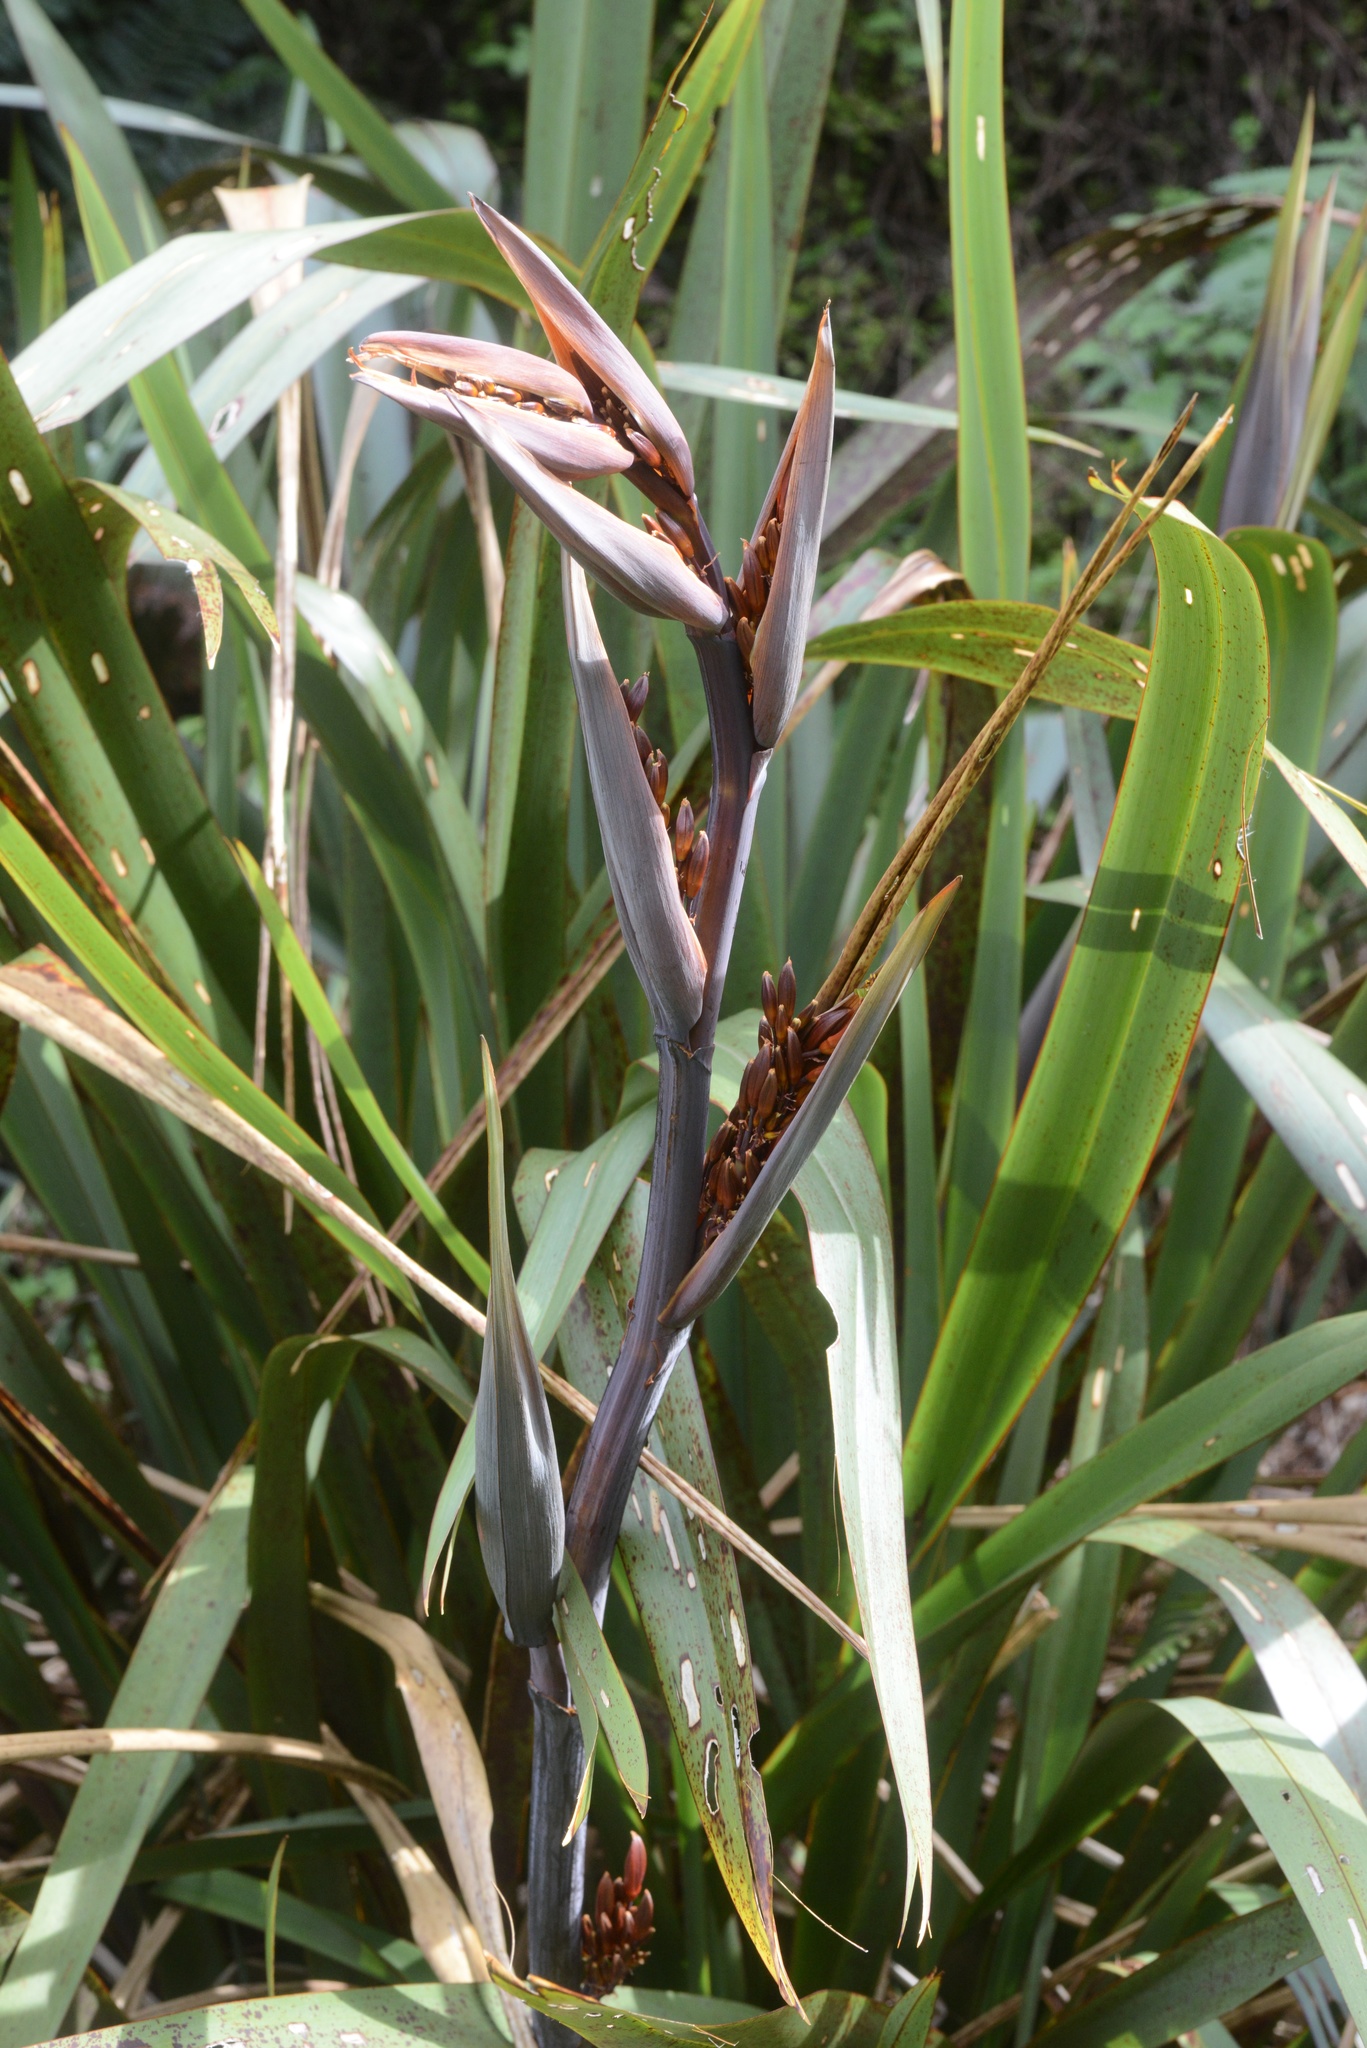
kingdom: Plantae
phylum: Tracheophyta
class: Liliopsida
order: Asparagales
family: Asphodelaceae
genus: Phormium
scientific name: Phormium tenax
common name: New zealand flax
